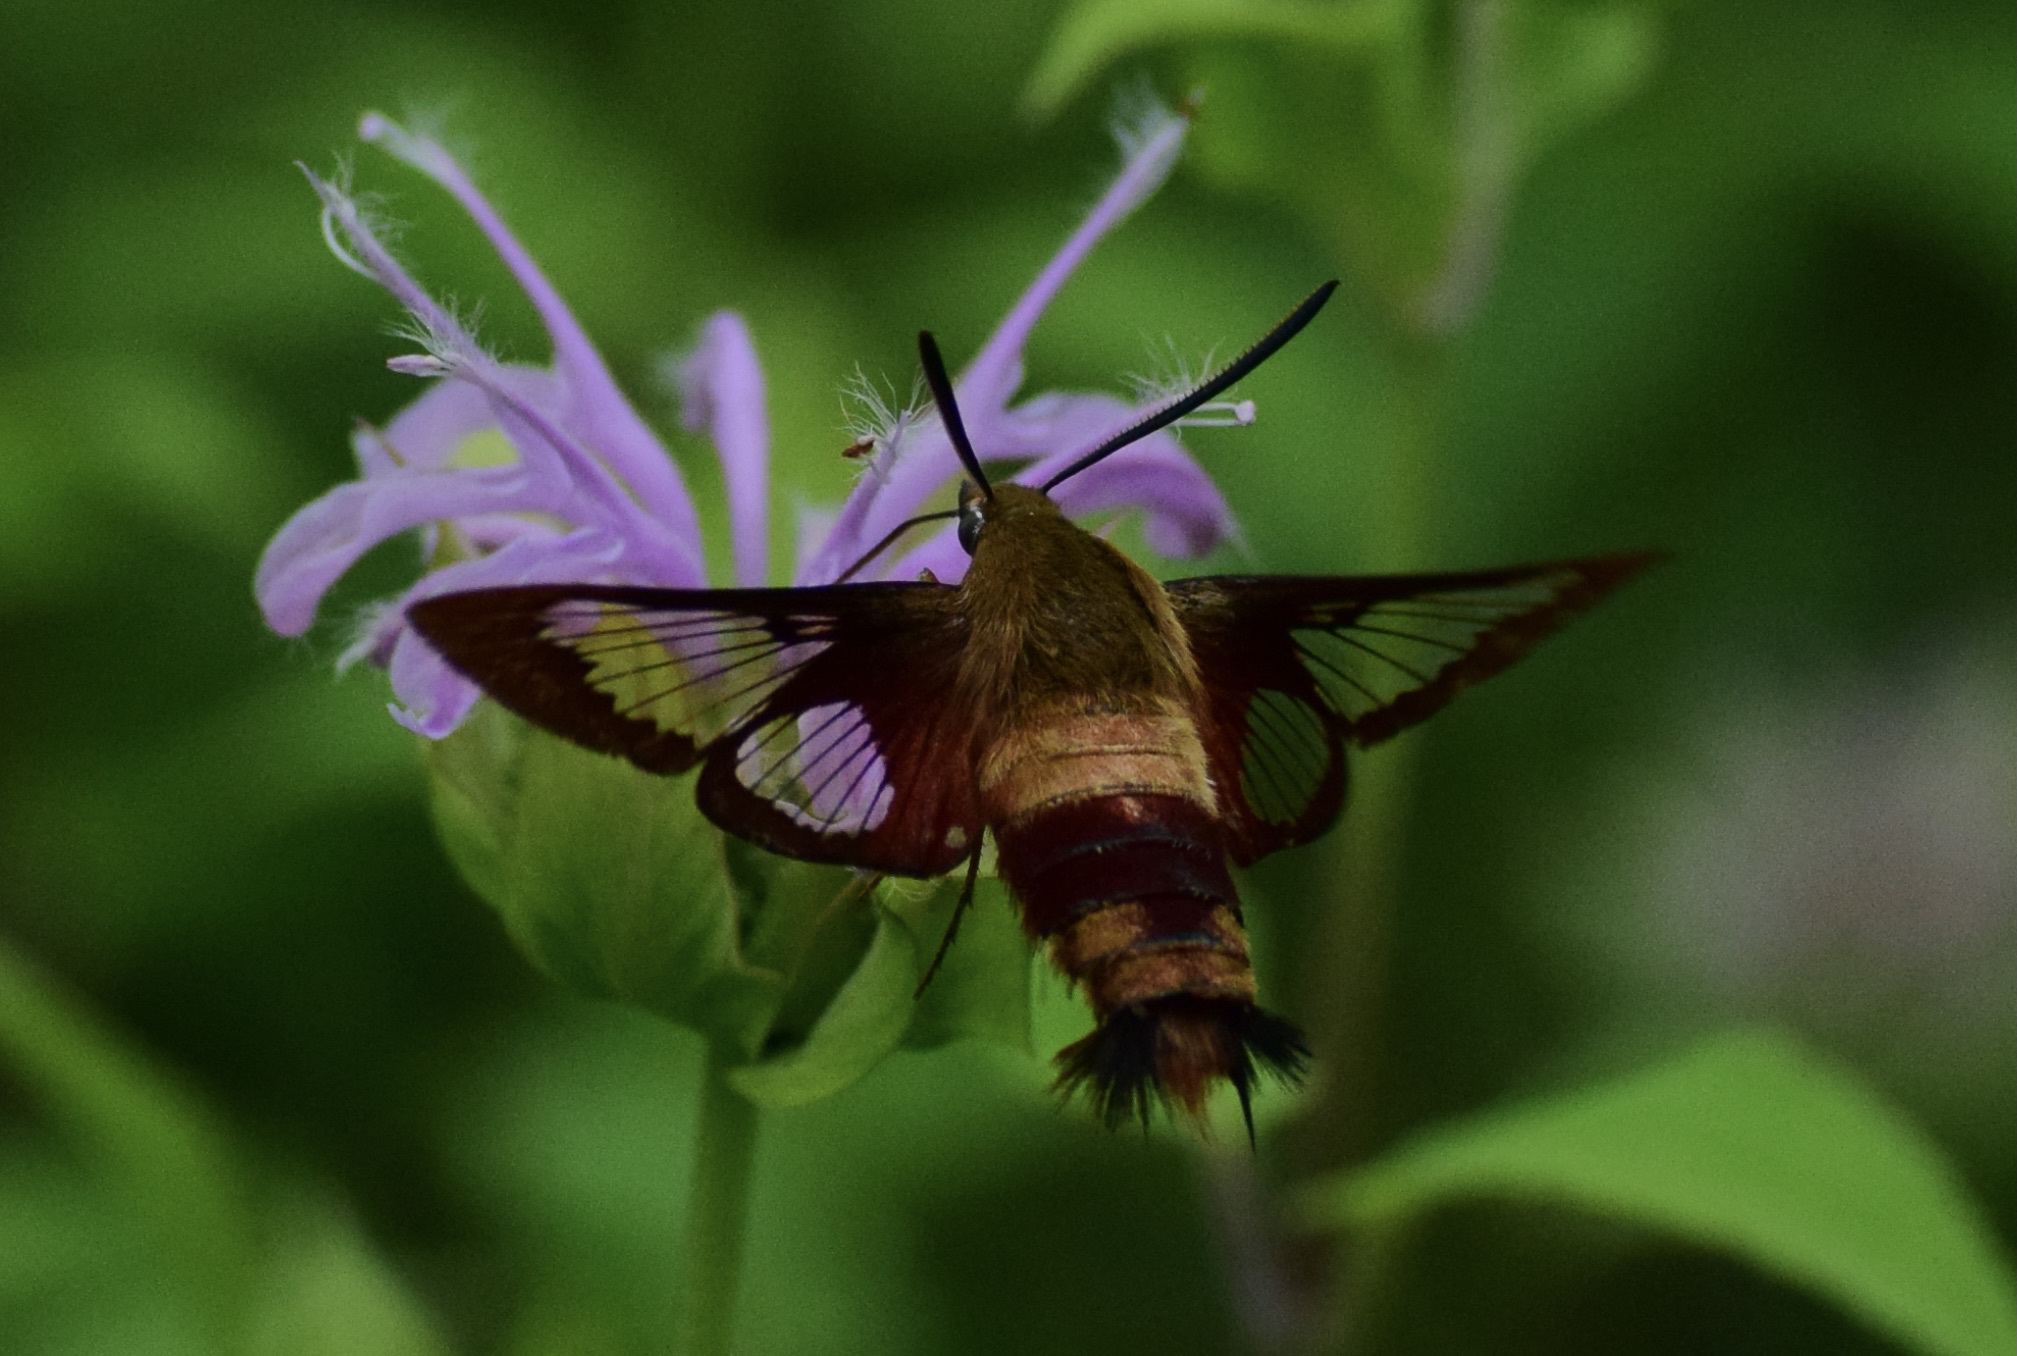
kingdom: Animalia
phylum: Arthropoda
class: Insecta
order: Lepidoptera
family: Sphingidae
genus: Hemaris
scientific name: Hemaris thysbe
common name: Common clear-wing
